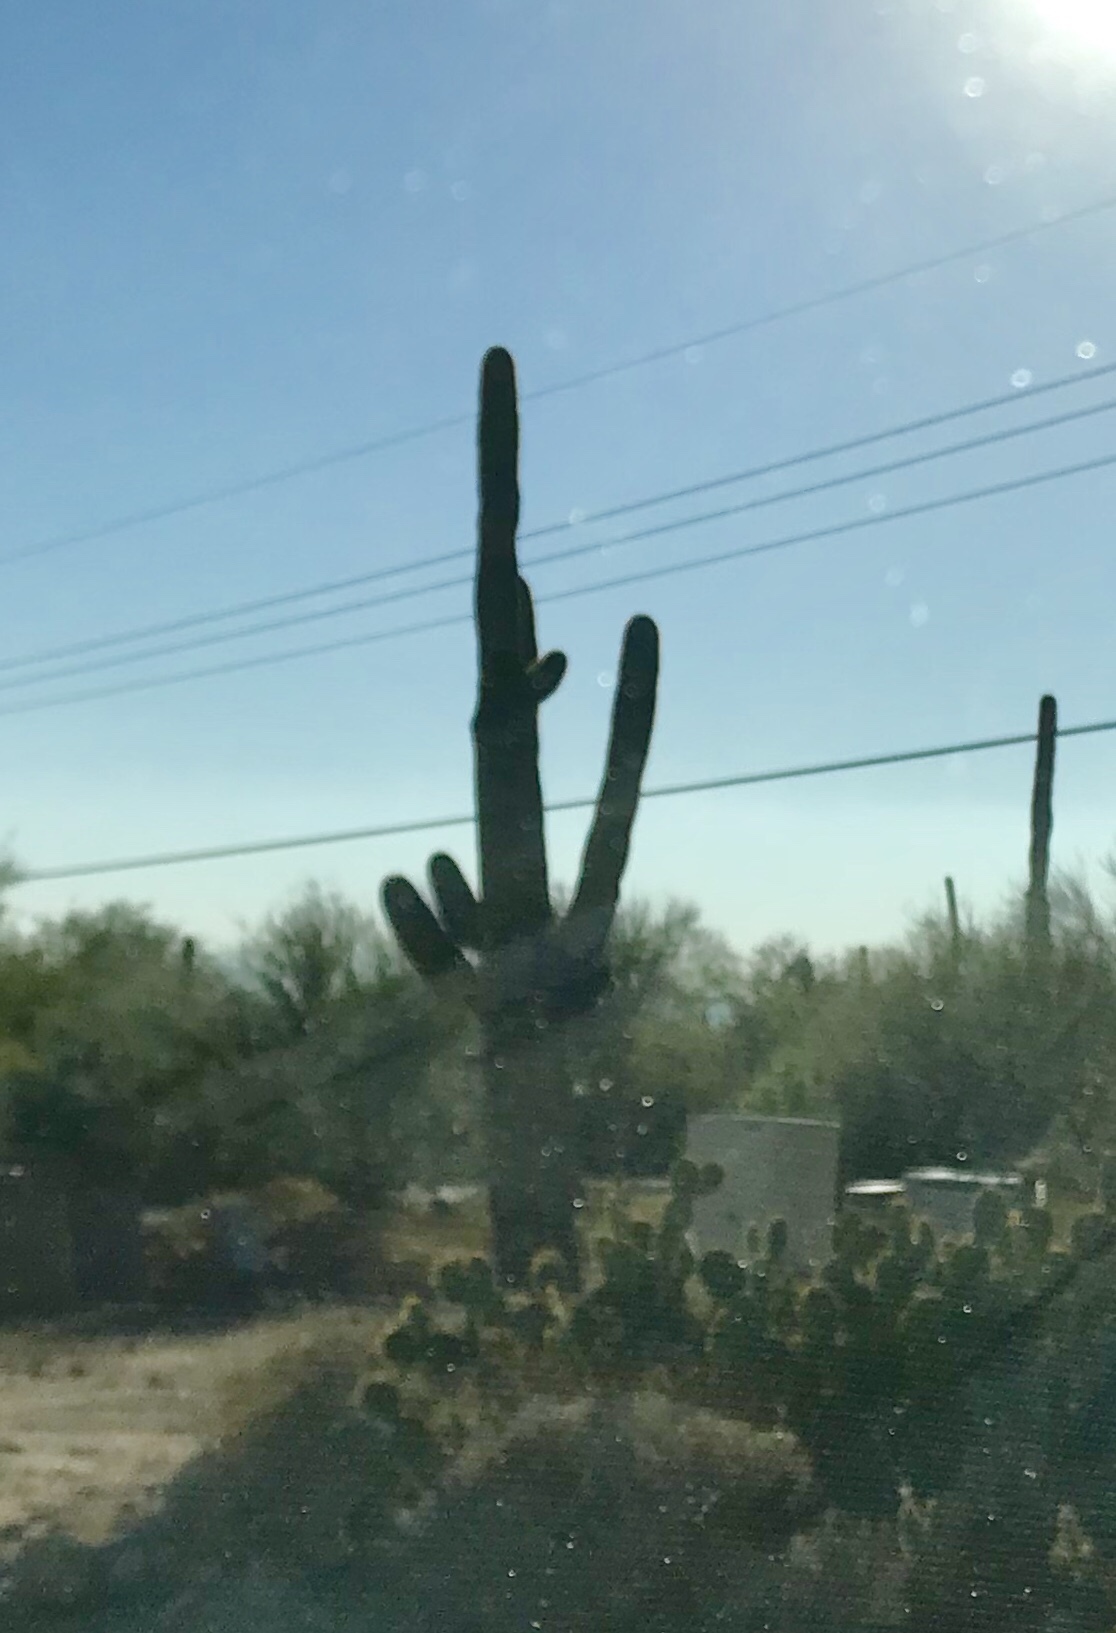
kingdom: Plantae
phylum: Tracheophyta
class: Magnoliopsida
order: Caryophyllales
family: Cactaceae
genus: Carnegiea
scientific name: Carnegiea gigantea
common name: Saguaro
